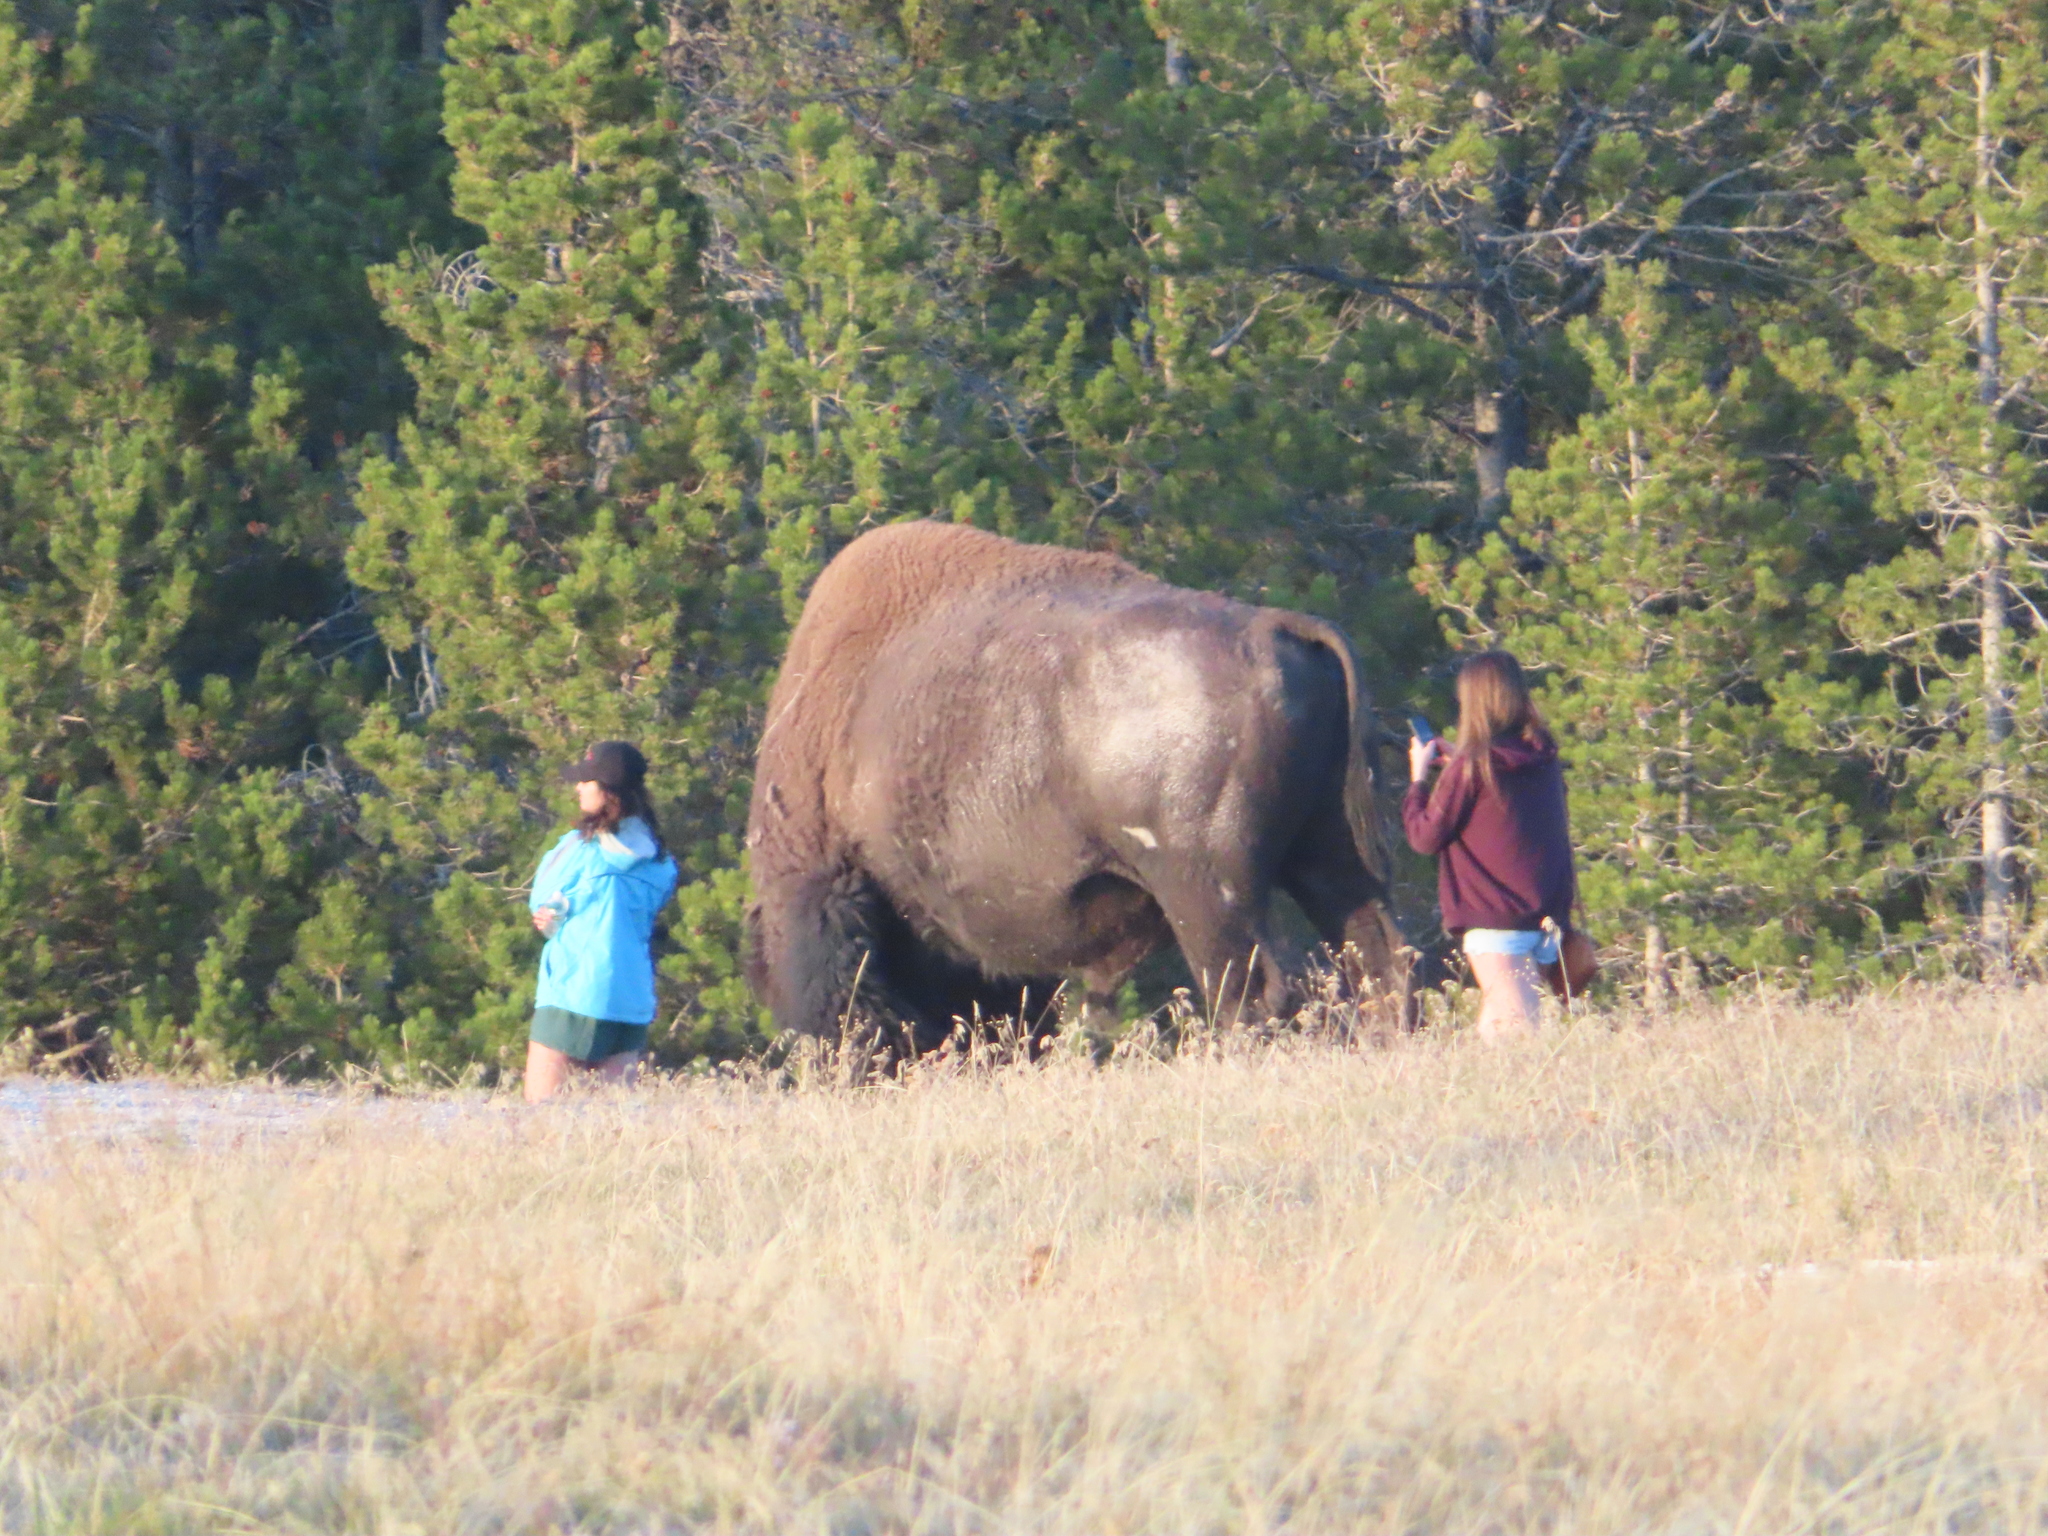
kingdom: Animalia
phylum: Chordata
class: Mammalia
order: Artiodactyla
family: Bovidae
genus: Bison
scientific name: Bison bison
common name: American bison
